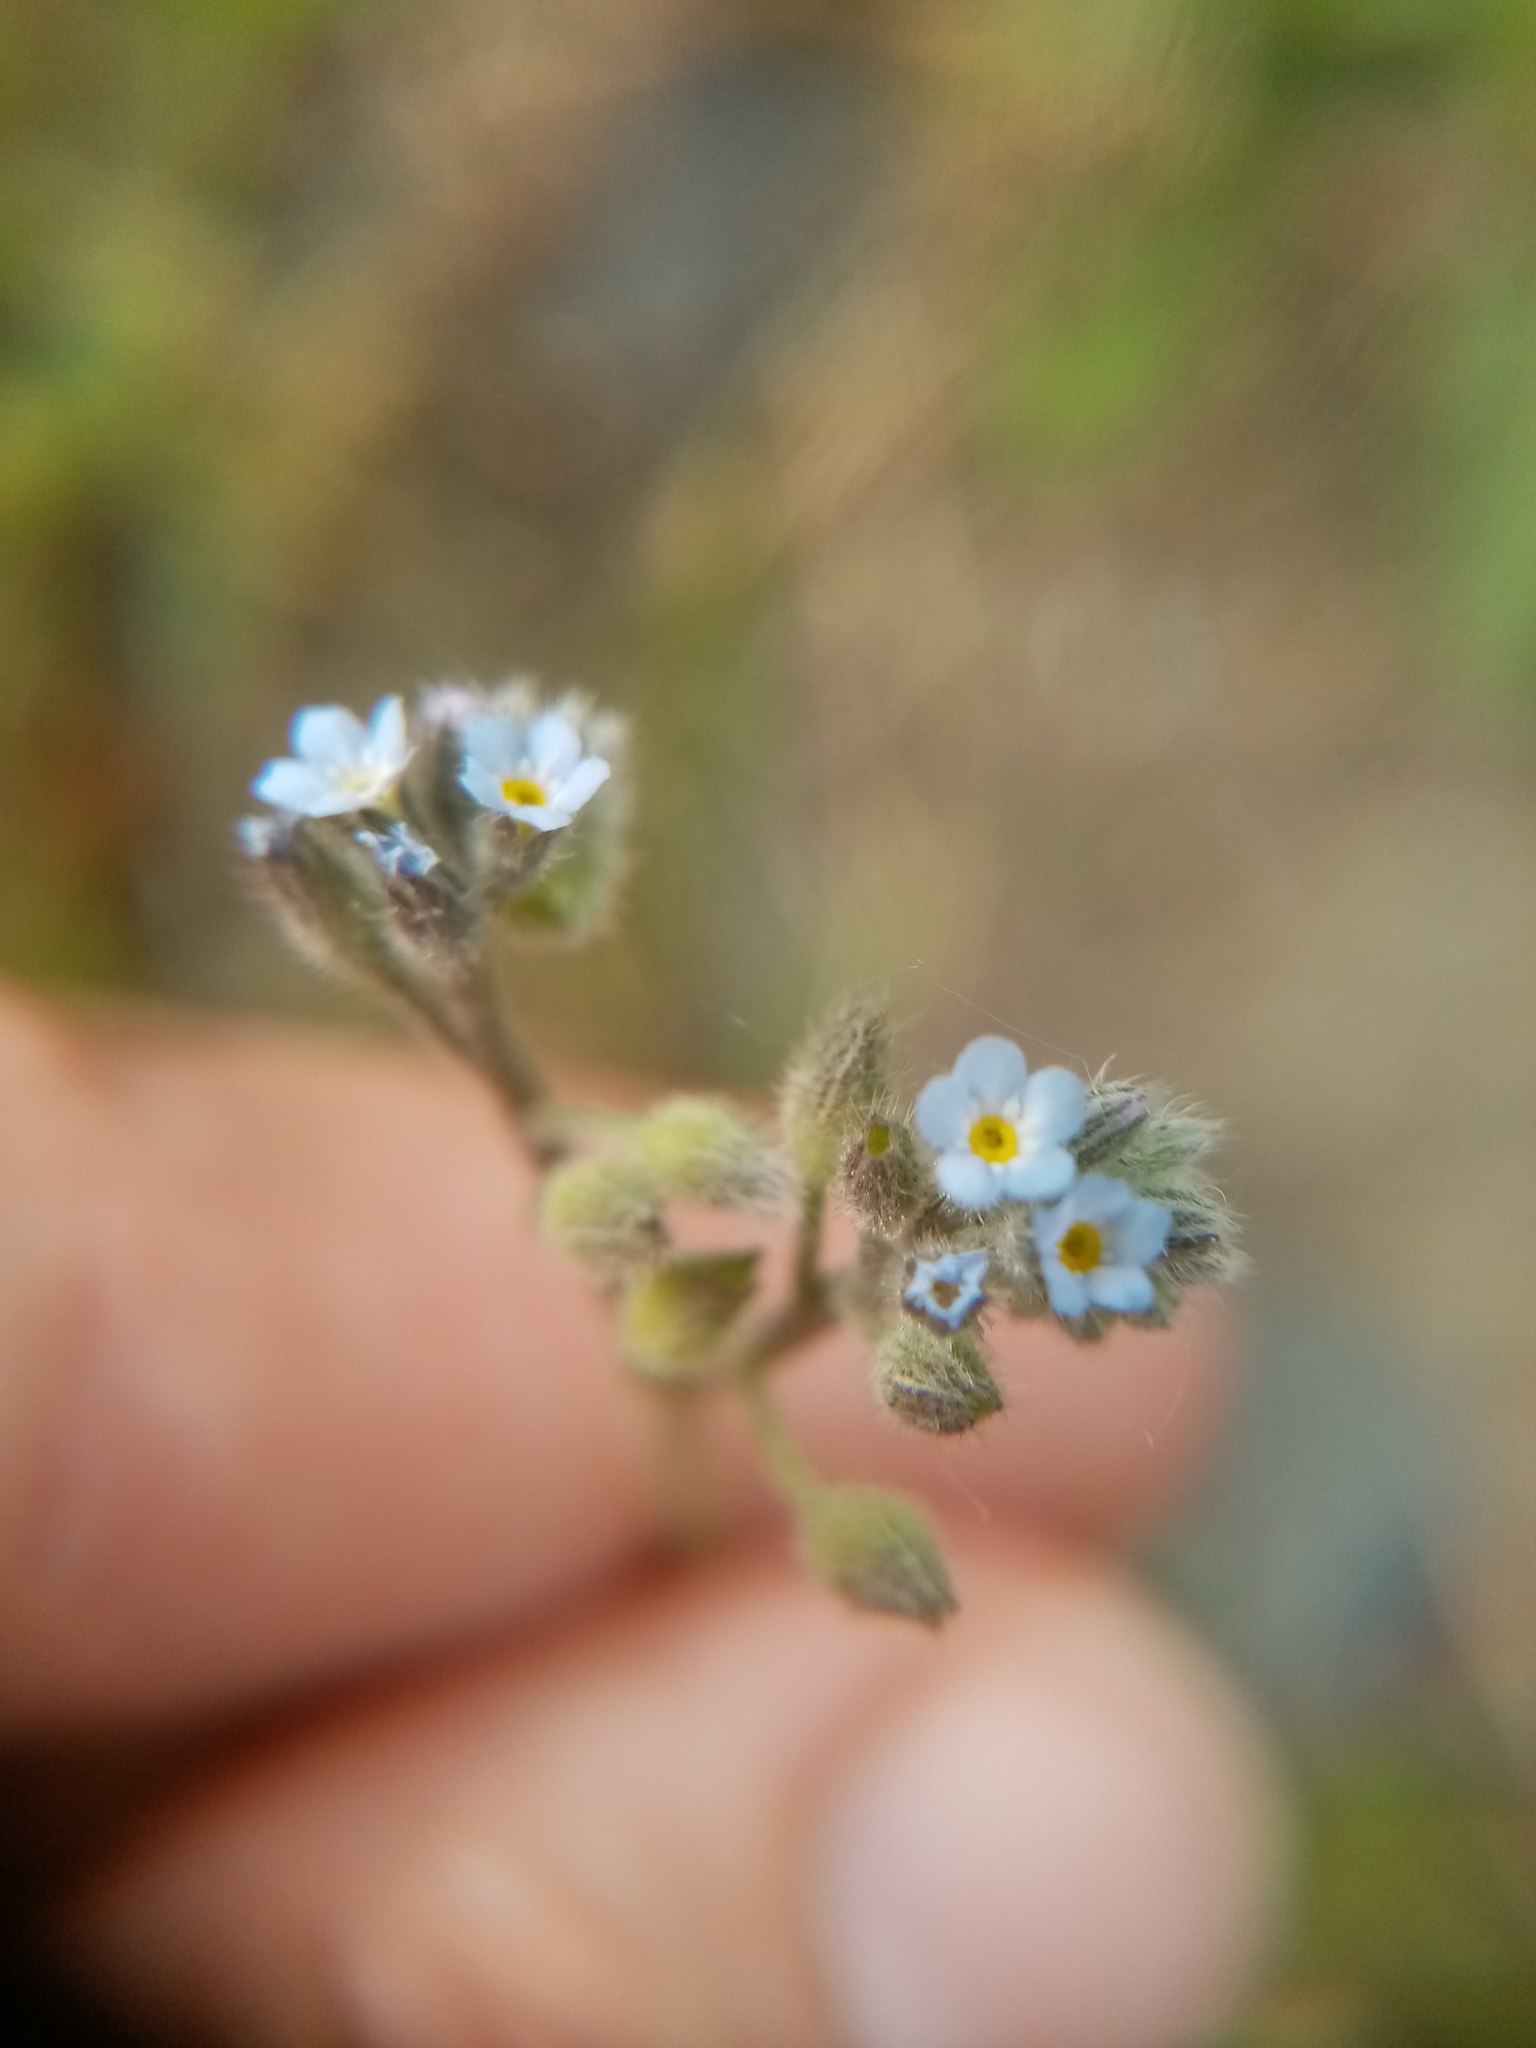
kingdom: Plantae
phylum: Tracheophyta
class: Magnoliopsida
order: Boraginales
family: Boraginaceae
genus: Myosotis
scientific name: Myosotis arvensis
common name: Field forget-me-not
